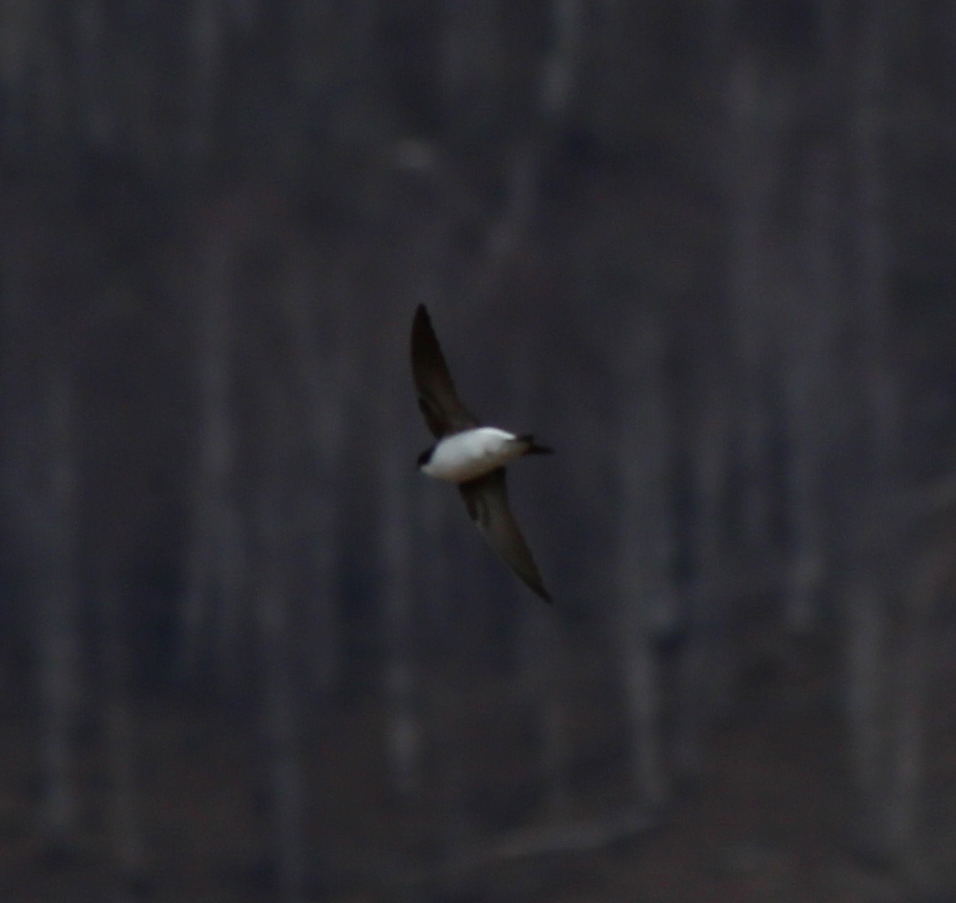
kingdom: Animalia
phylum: Chordata
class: Aves
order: Passeriformes
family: Hirundinidae
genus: Delichon
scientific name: Delichon urbicum
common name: Common house martin
